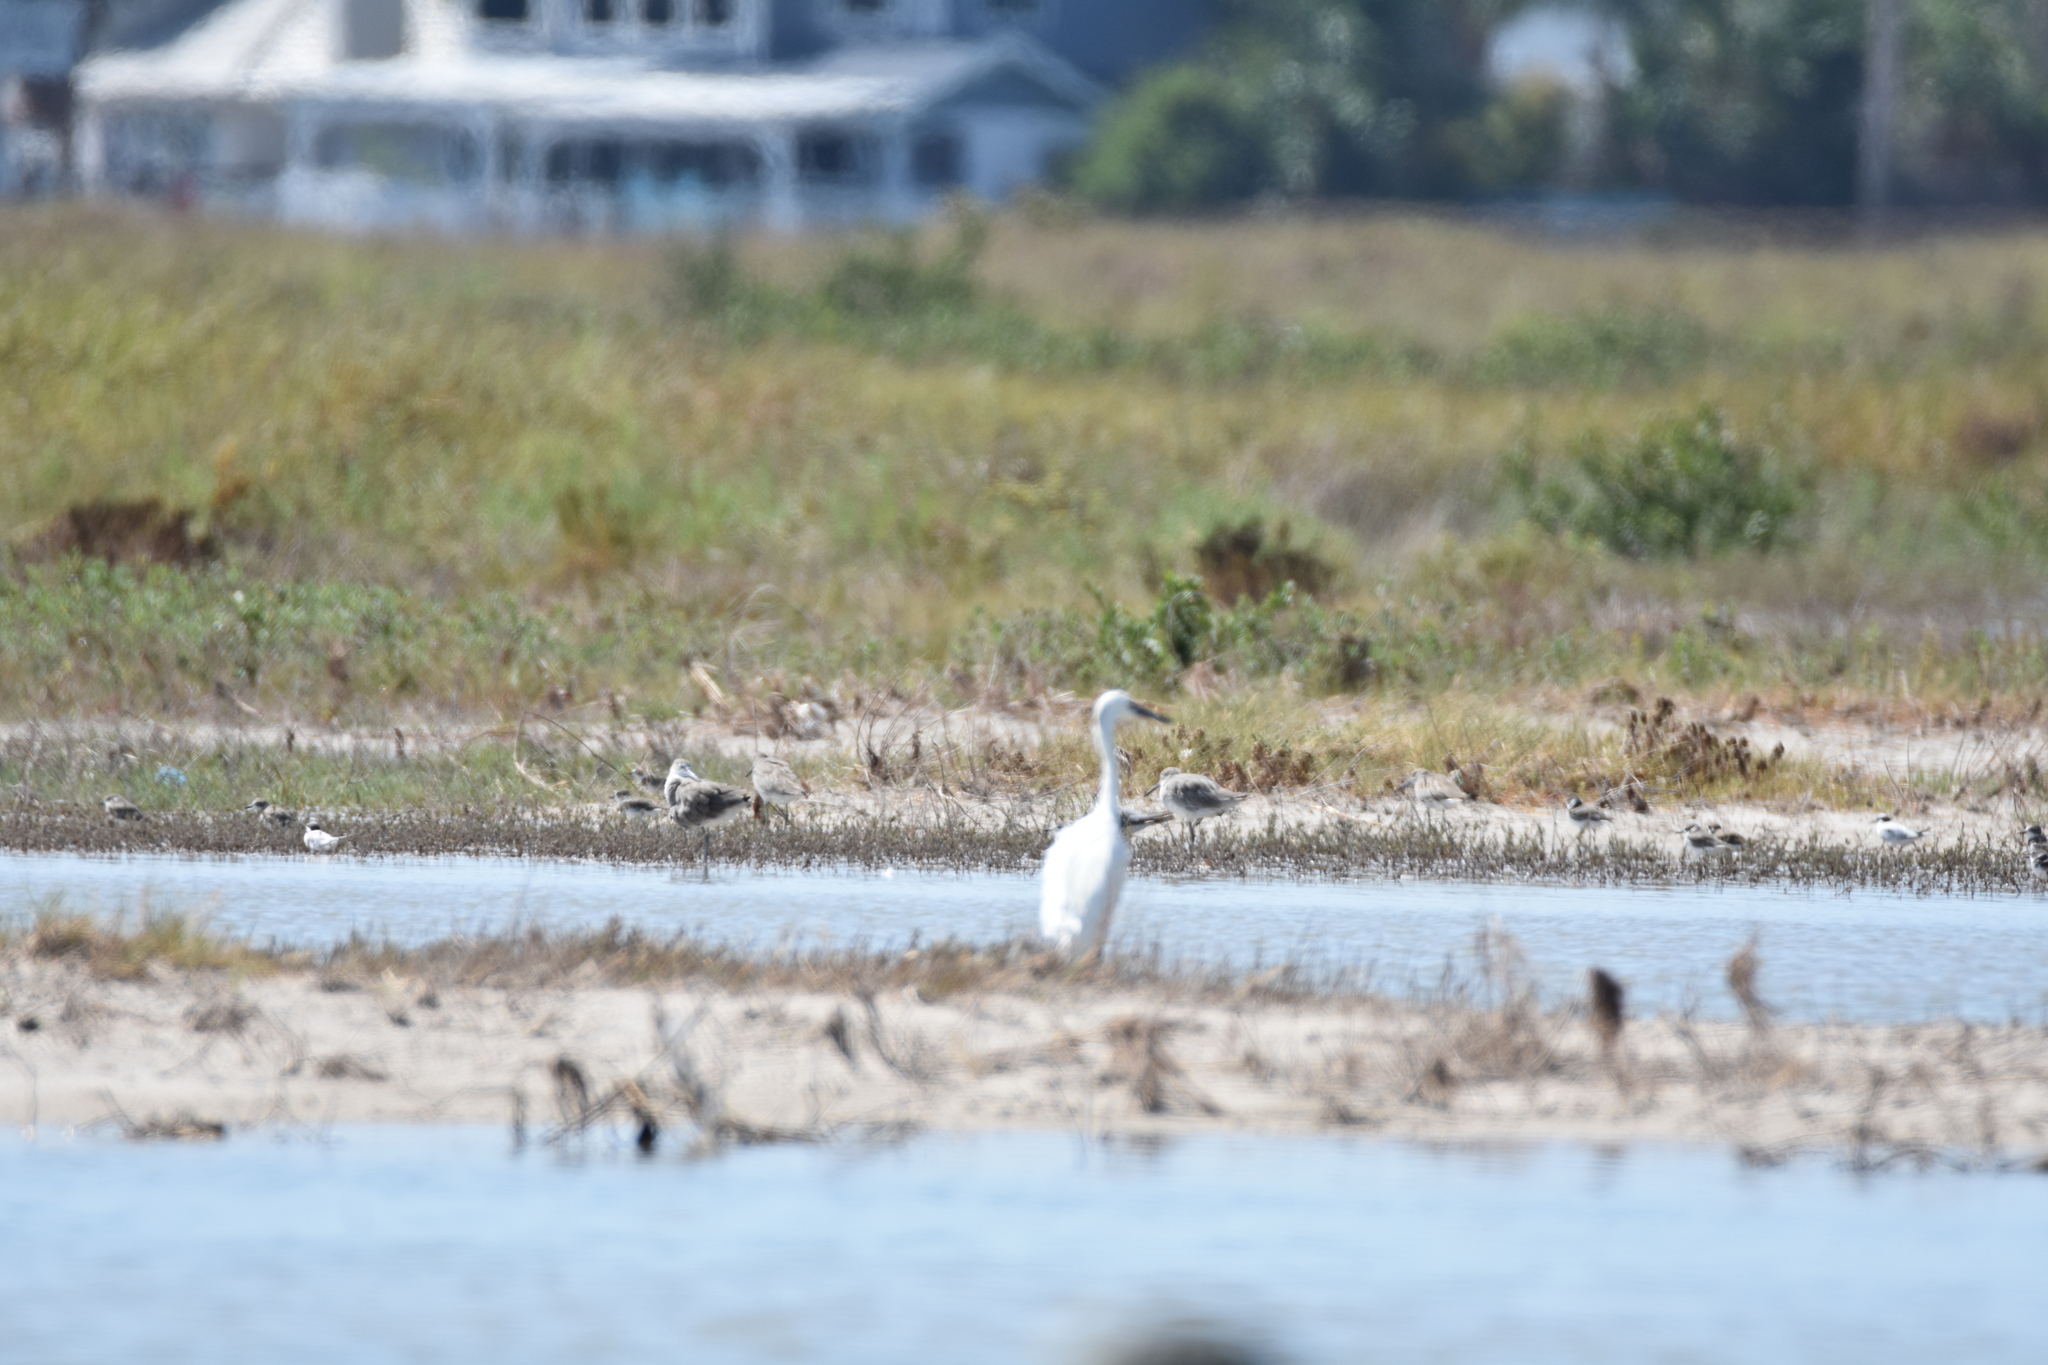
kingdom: Animalia
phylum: Chordata
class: Aves
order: Charadriiformes
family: Scolopacidae
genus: Tringa
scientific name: Tringa semipalmata
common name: Willet
